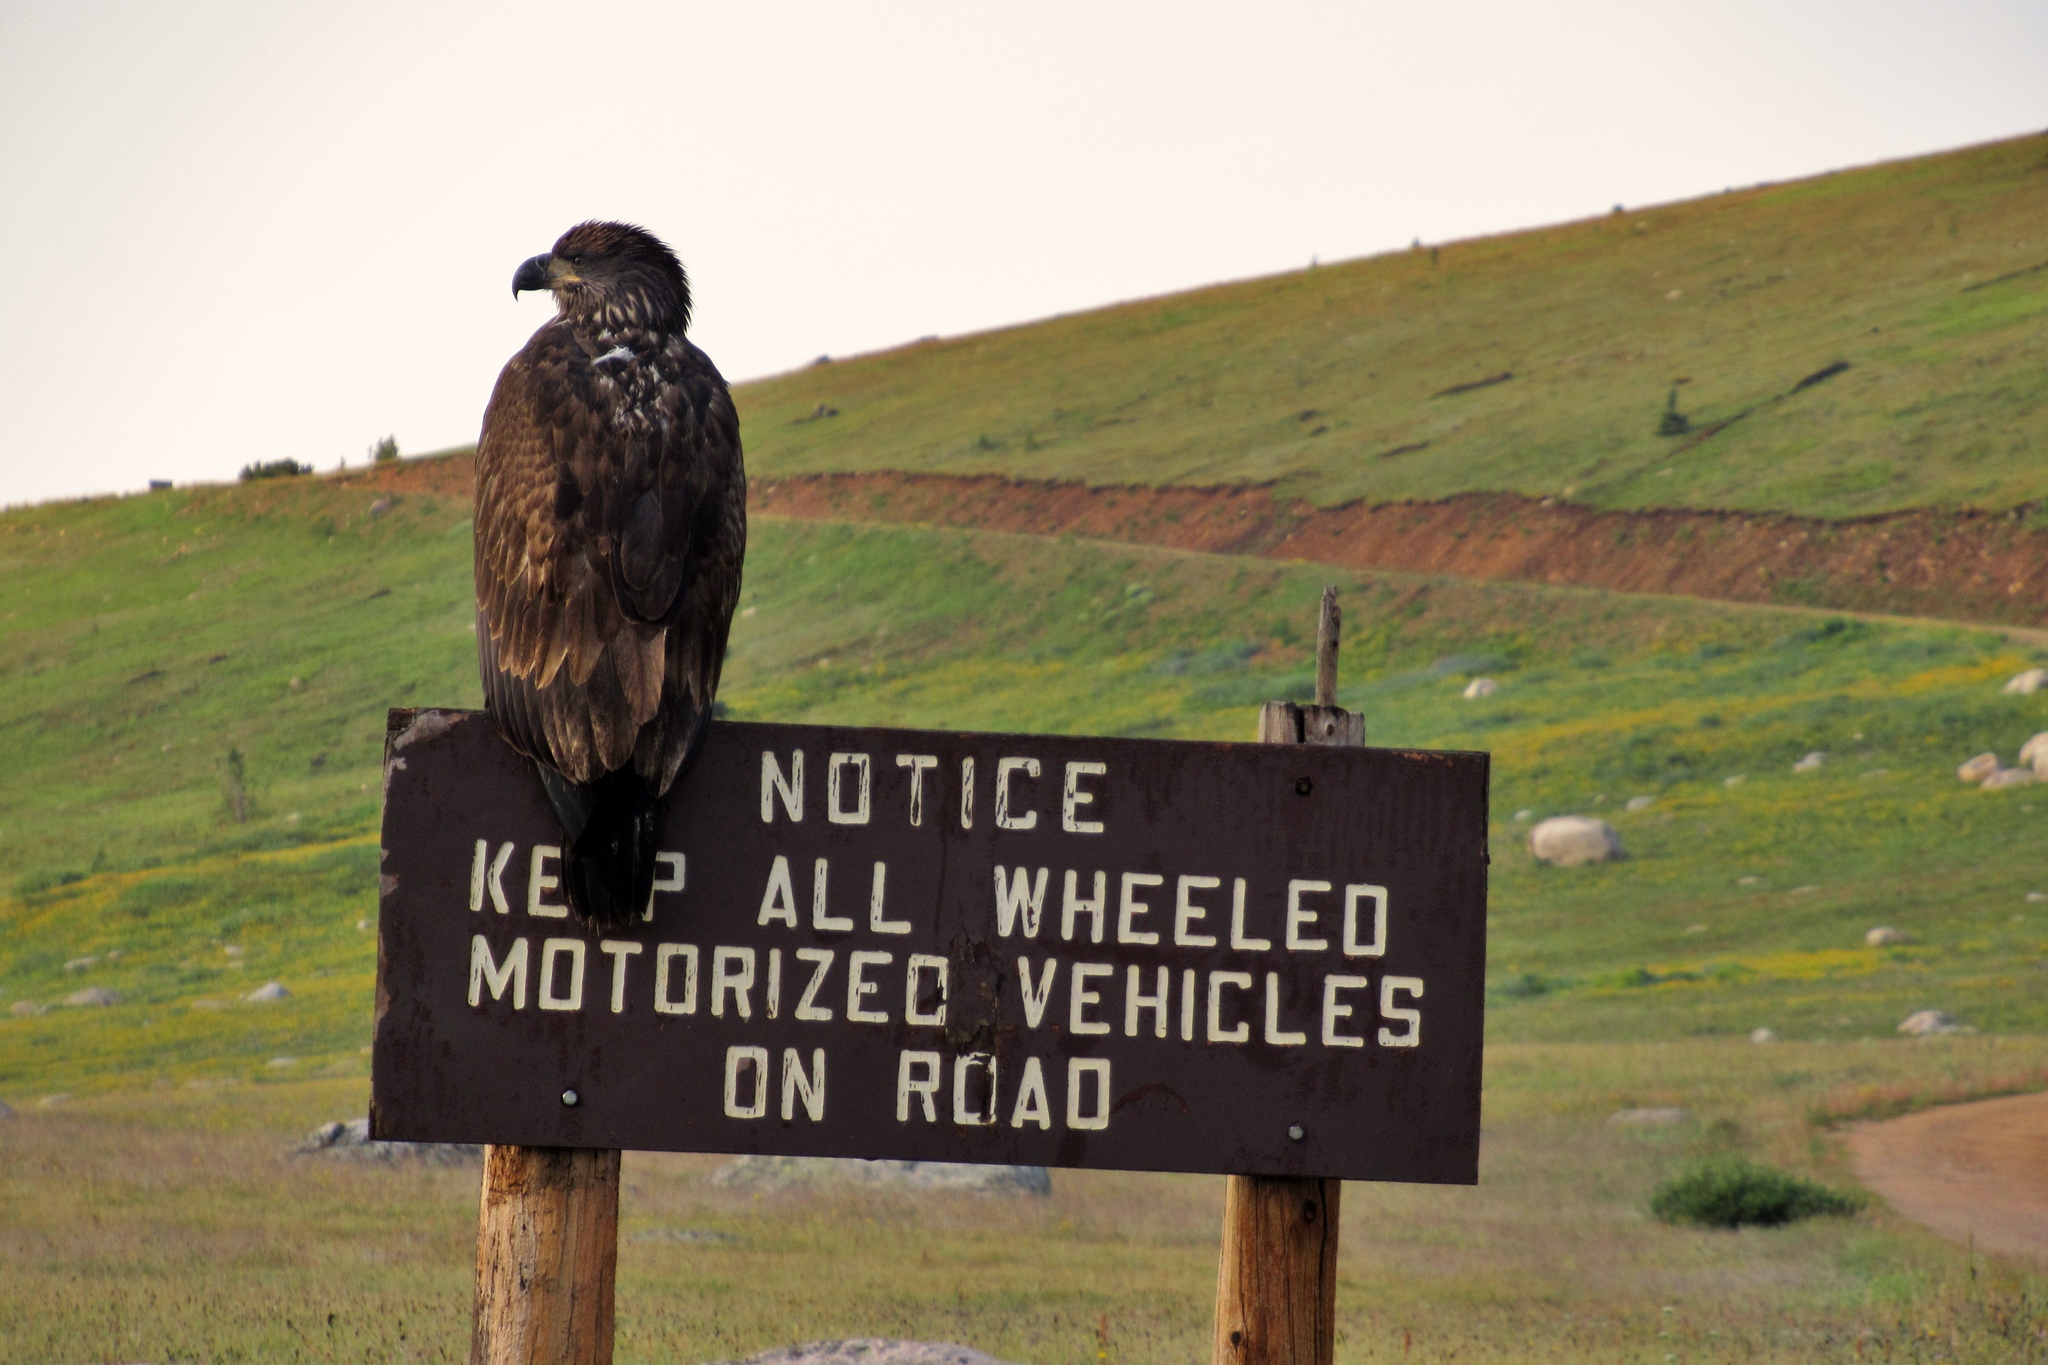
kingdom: Animalia
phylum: Chordata
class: Aves
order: Accipitriformes
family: Accipitridae
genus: Haliaeetus
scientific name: Haliaeetus leucocephalus
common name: Bald eagle
